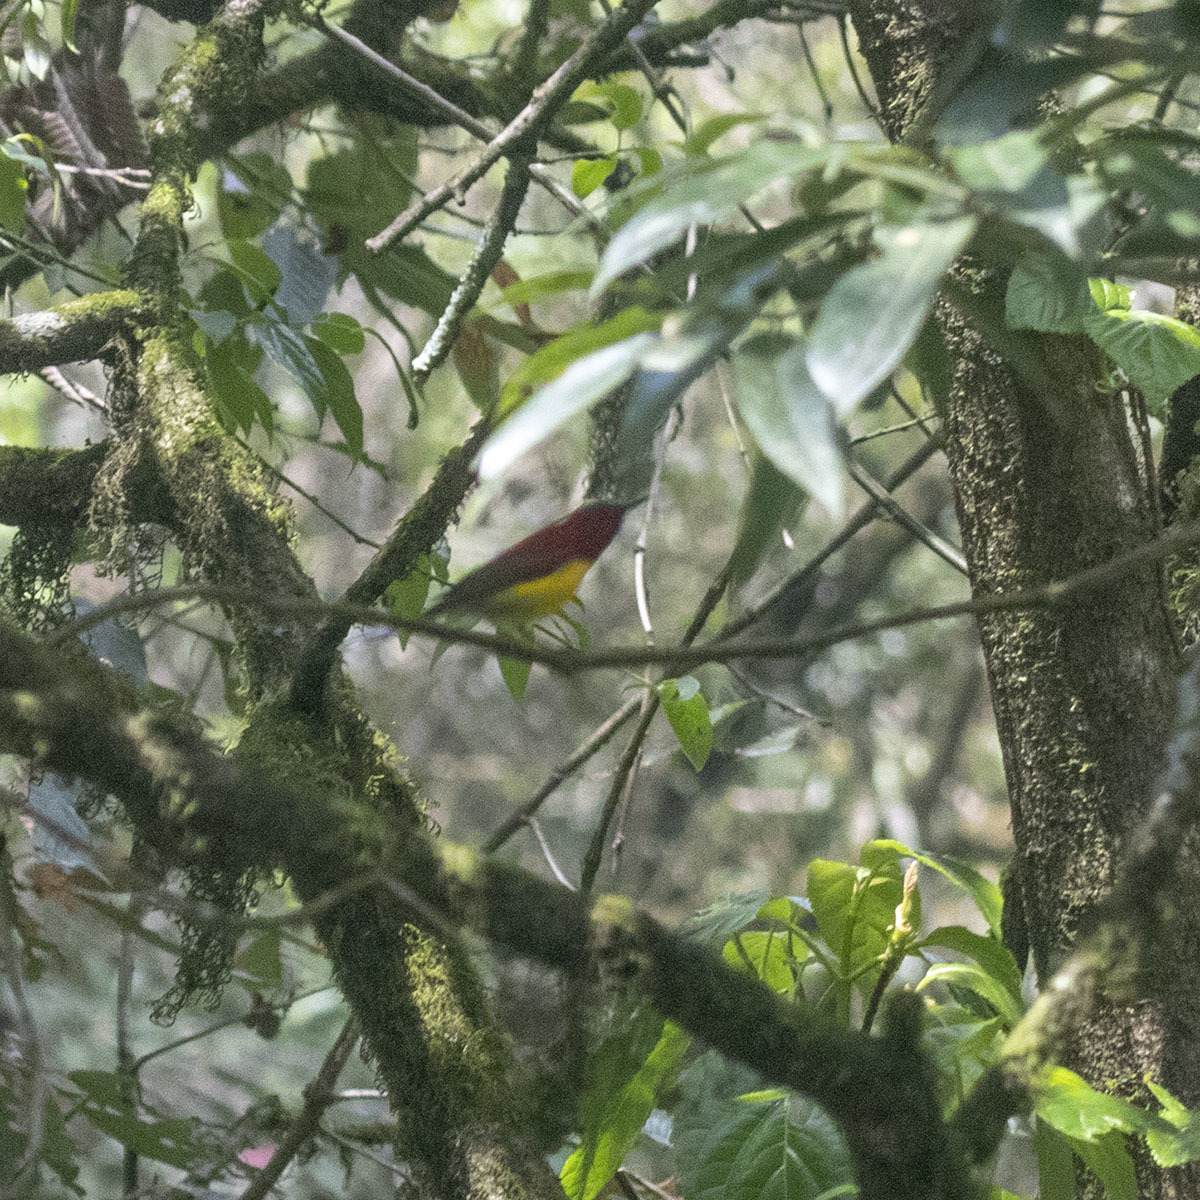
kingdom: Animalia
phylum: Chordata
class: Aves
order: Passeriformes
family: Nectariniidae
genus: Aethopyga
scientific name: Aethopyga nipalensis
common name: Green-tailed sunbird
